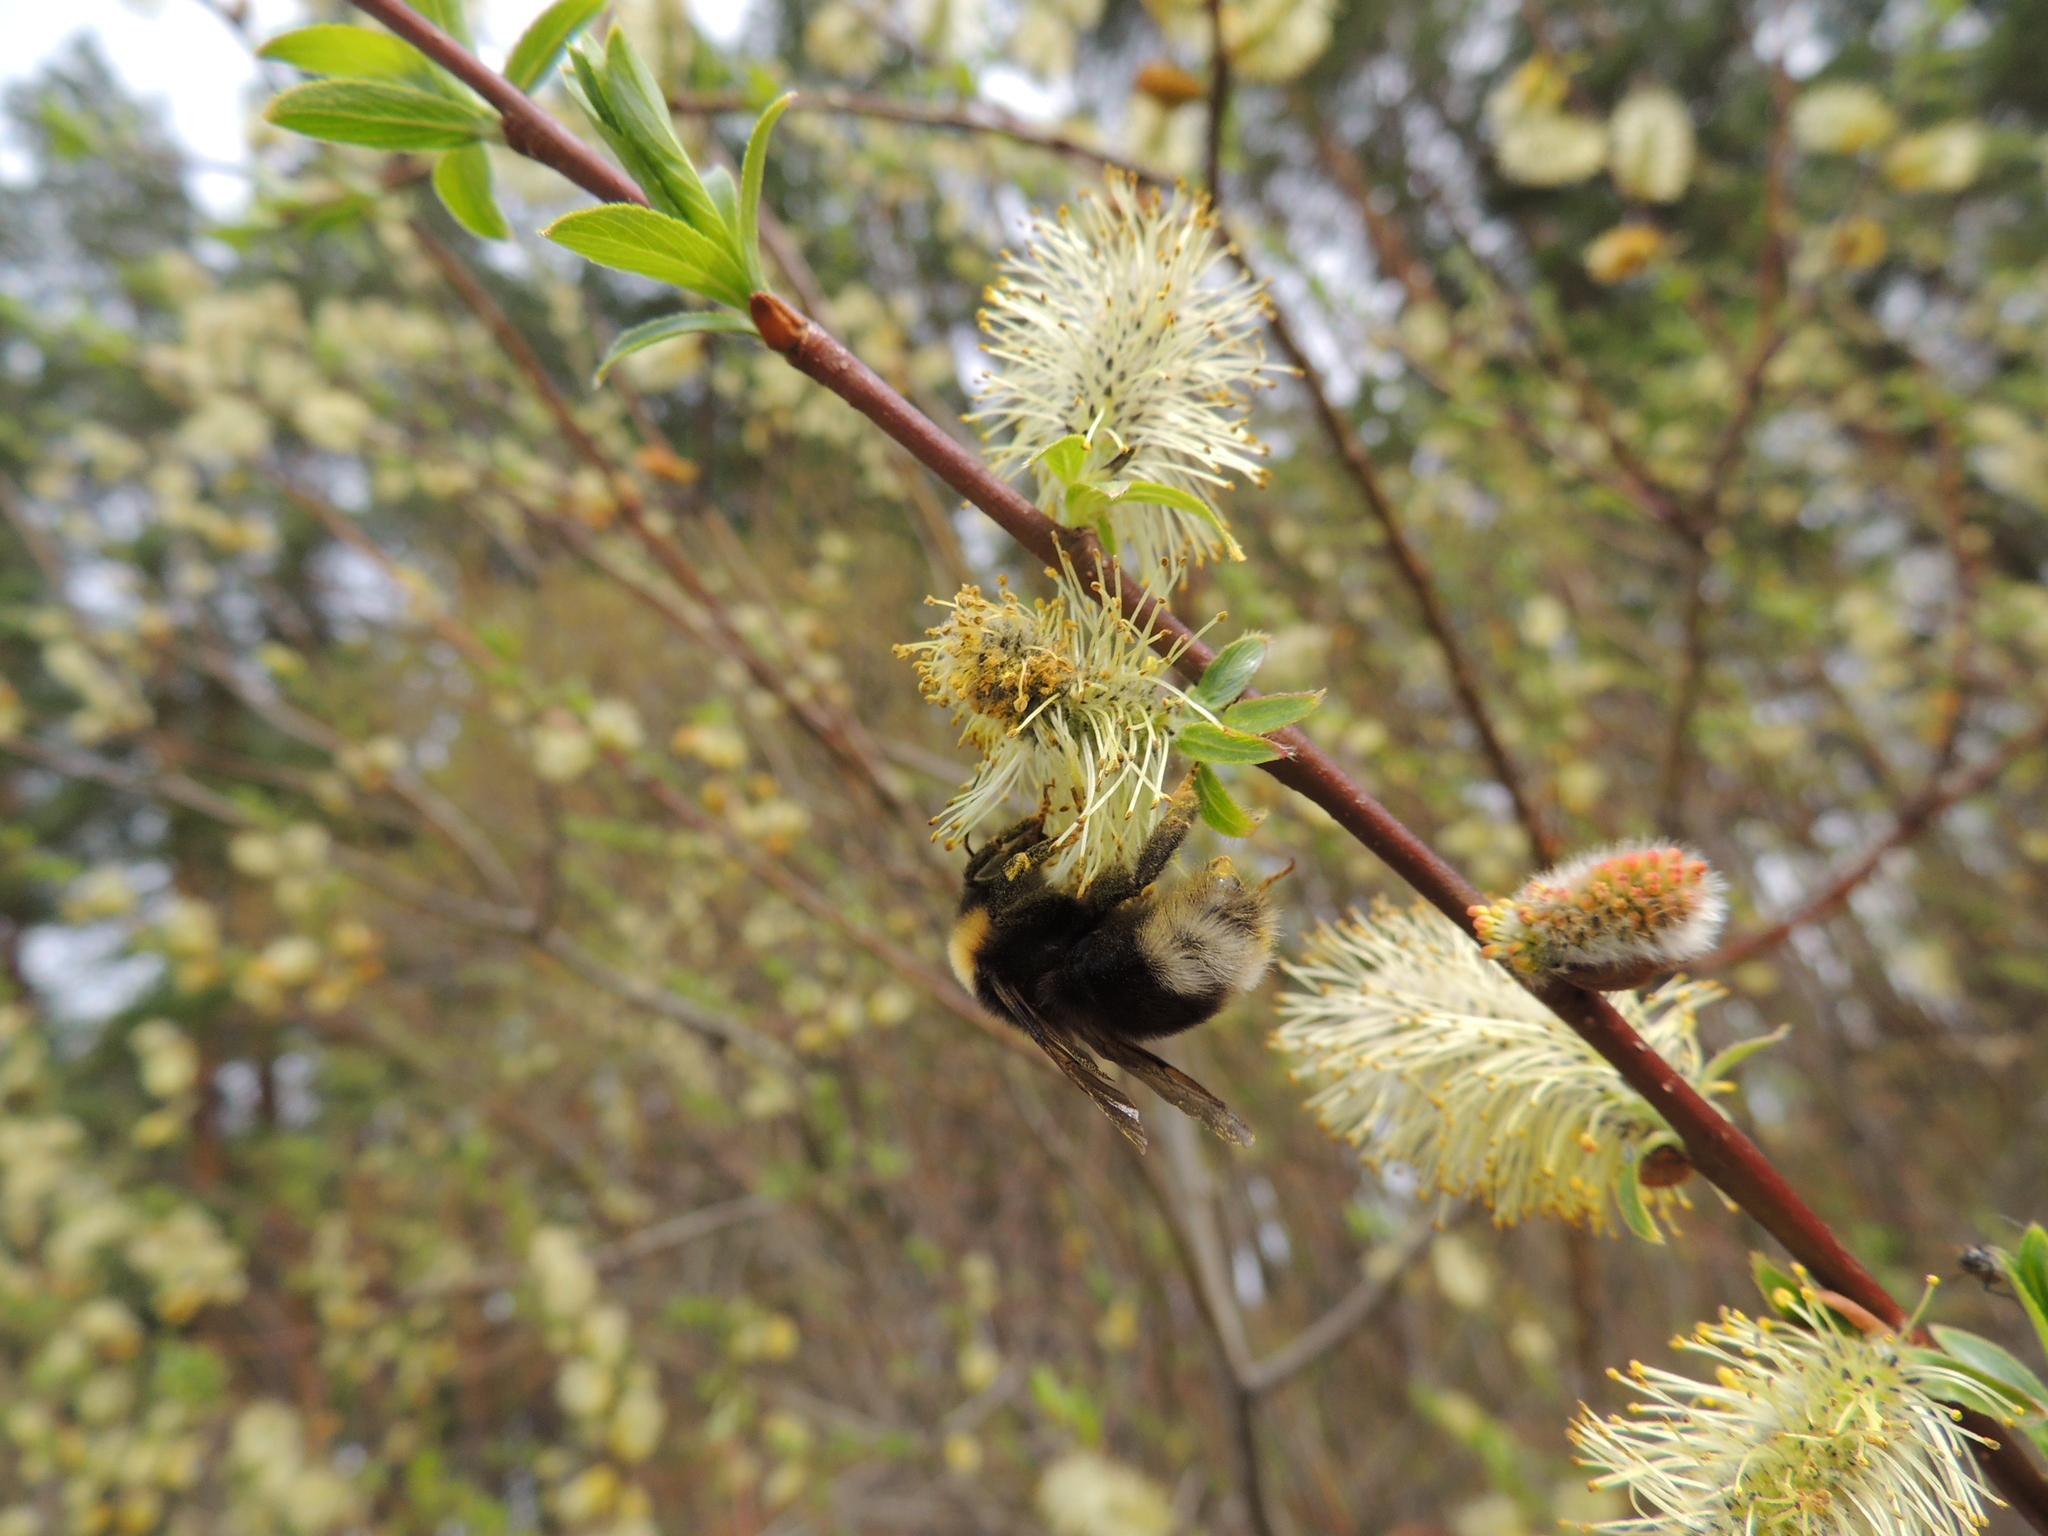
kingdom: Animalia
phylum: Arthropoda
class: Insecta
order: Hymenoptera
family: Apidae
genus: Bombus
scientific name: Bombus bohemicus
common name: Gypsy cuckoo bee
